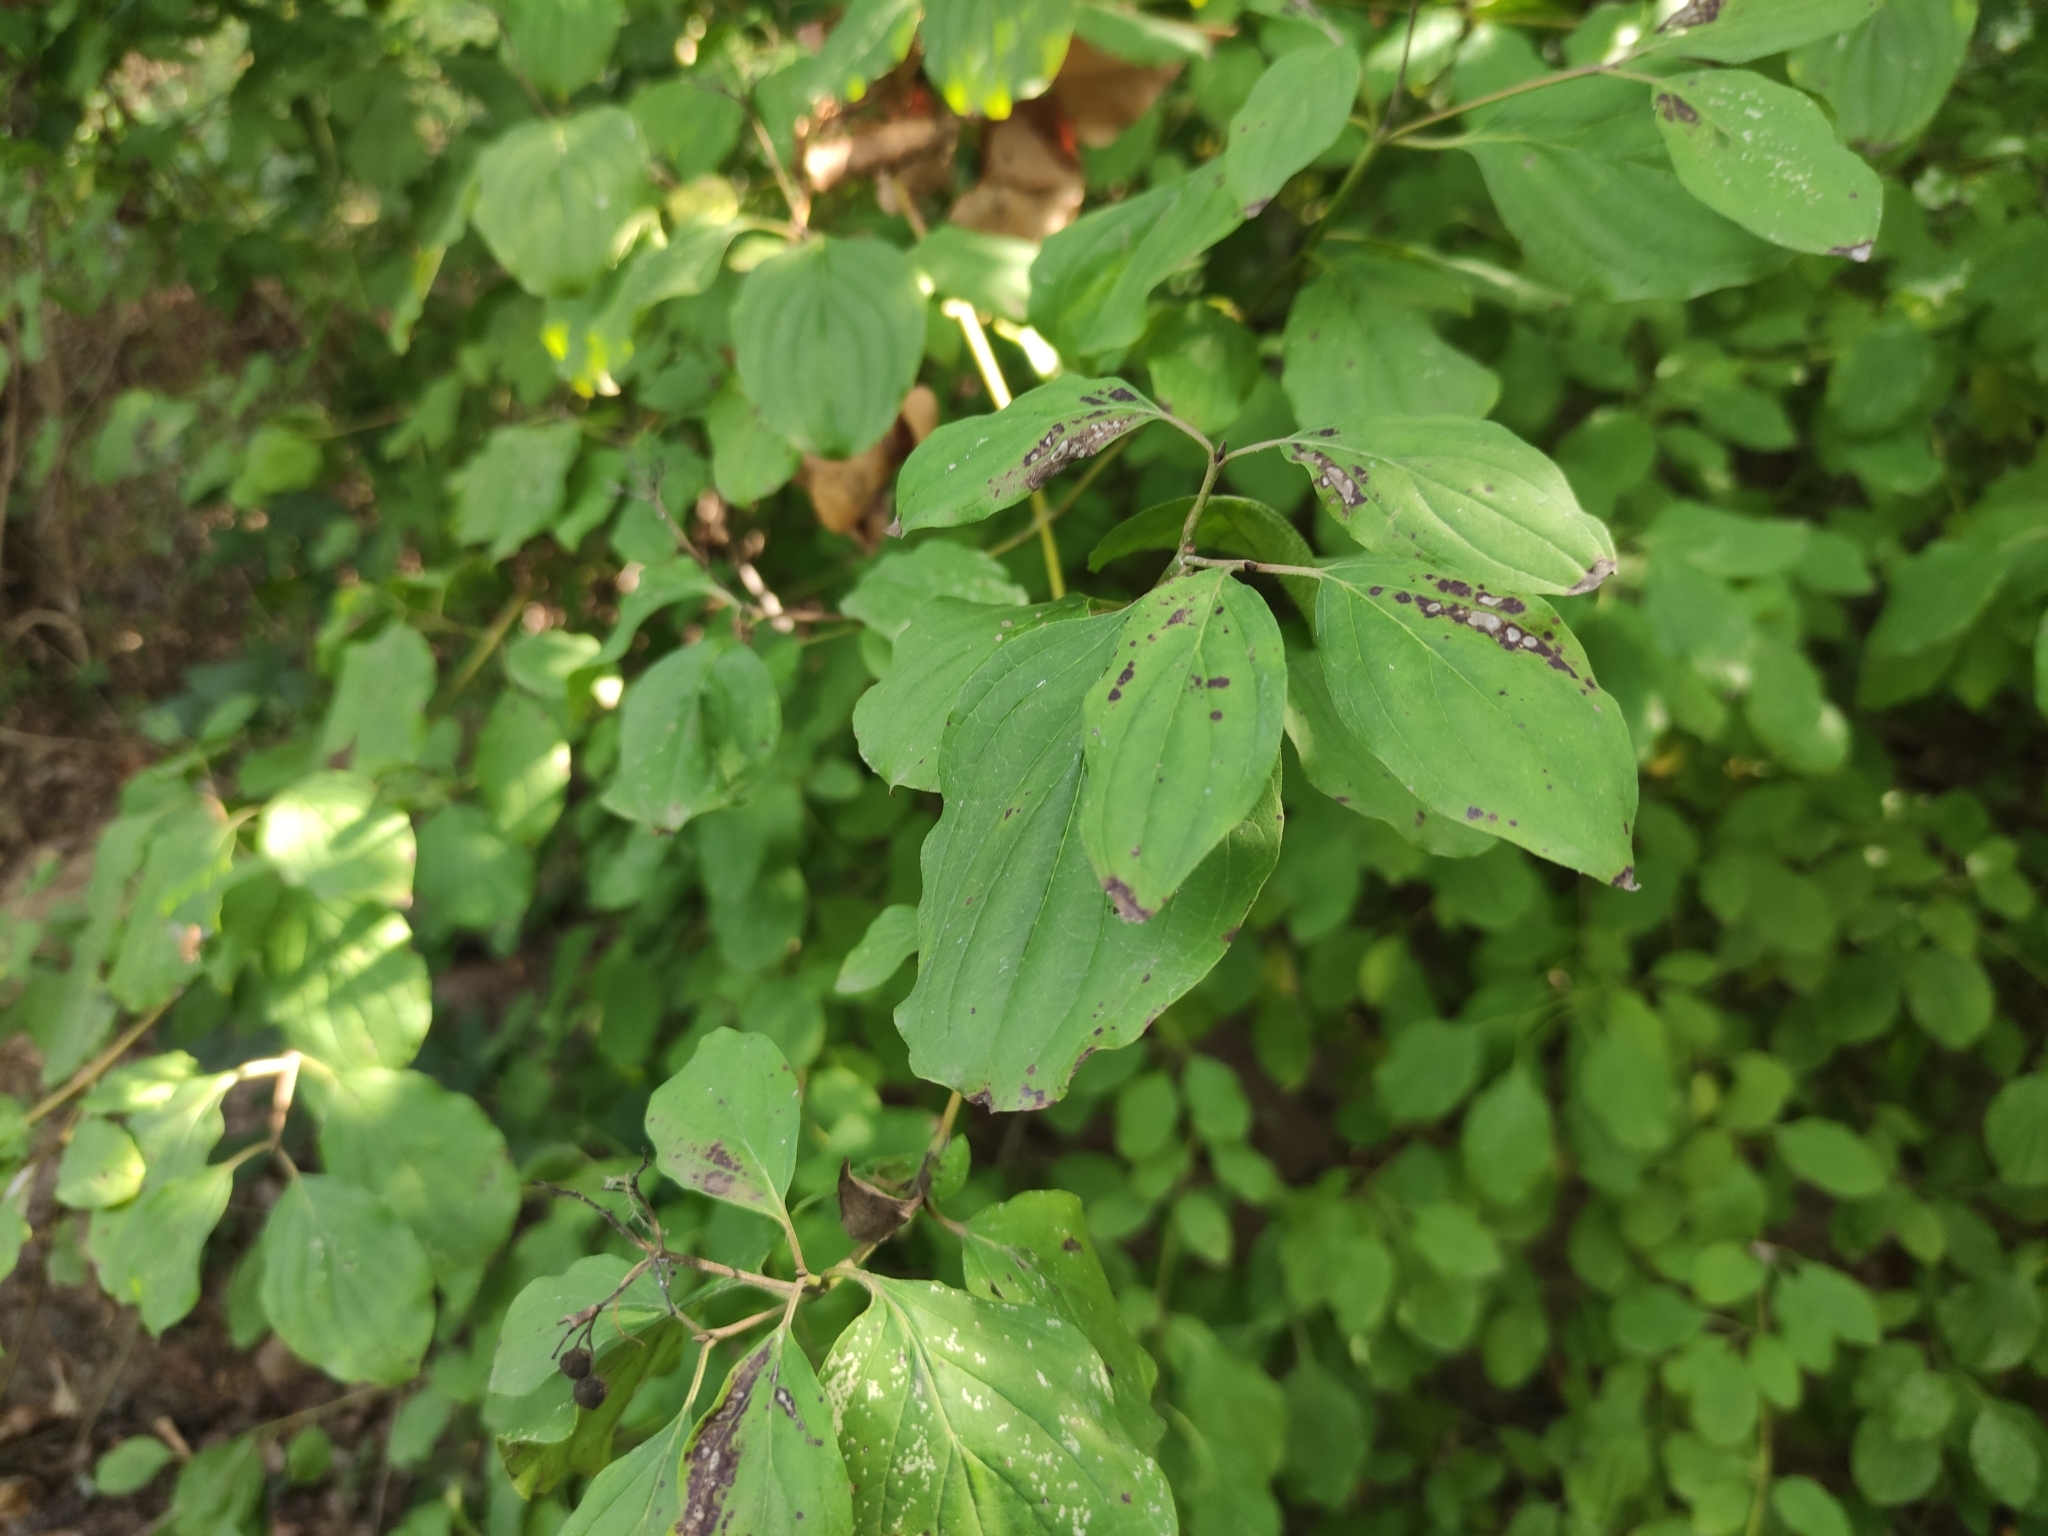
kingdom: Plantae
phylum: Tracheophyta
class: Magnoliopsida
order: Cornales
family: Cornaceae
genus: Cornus
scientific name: Cornus sanguinea
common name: Dogwood
